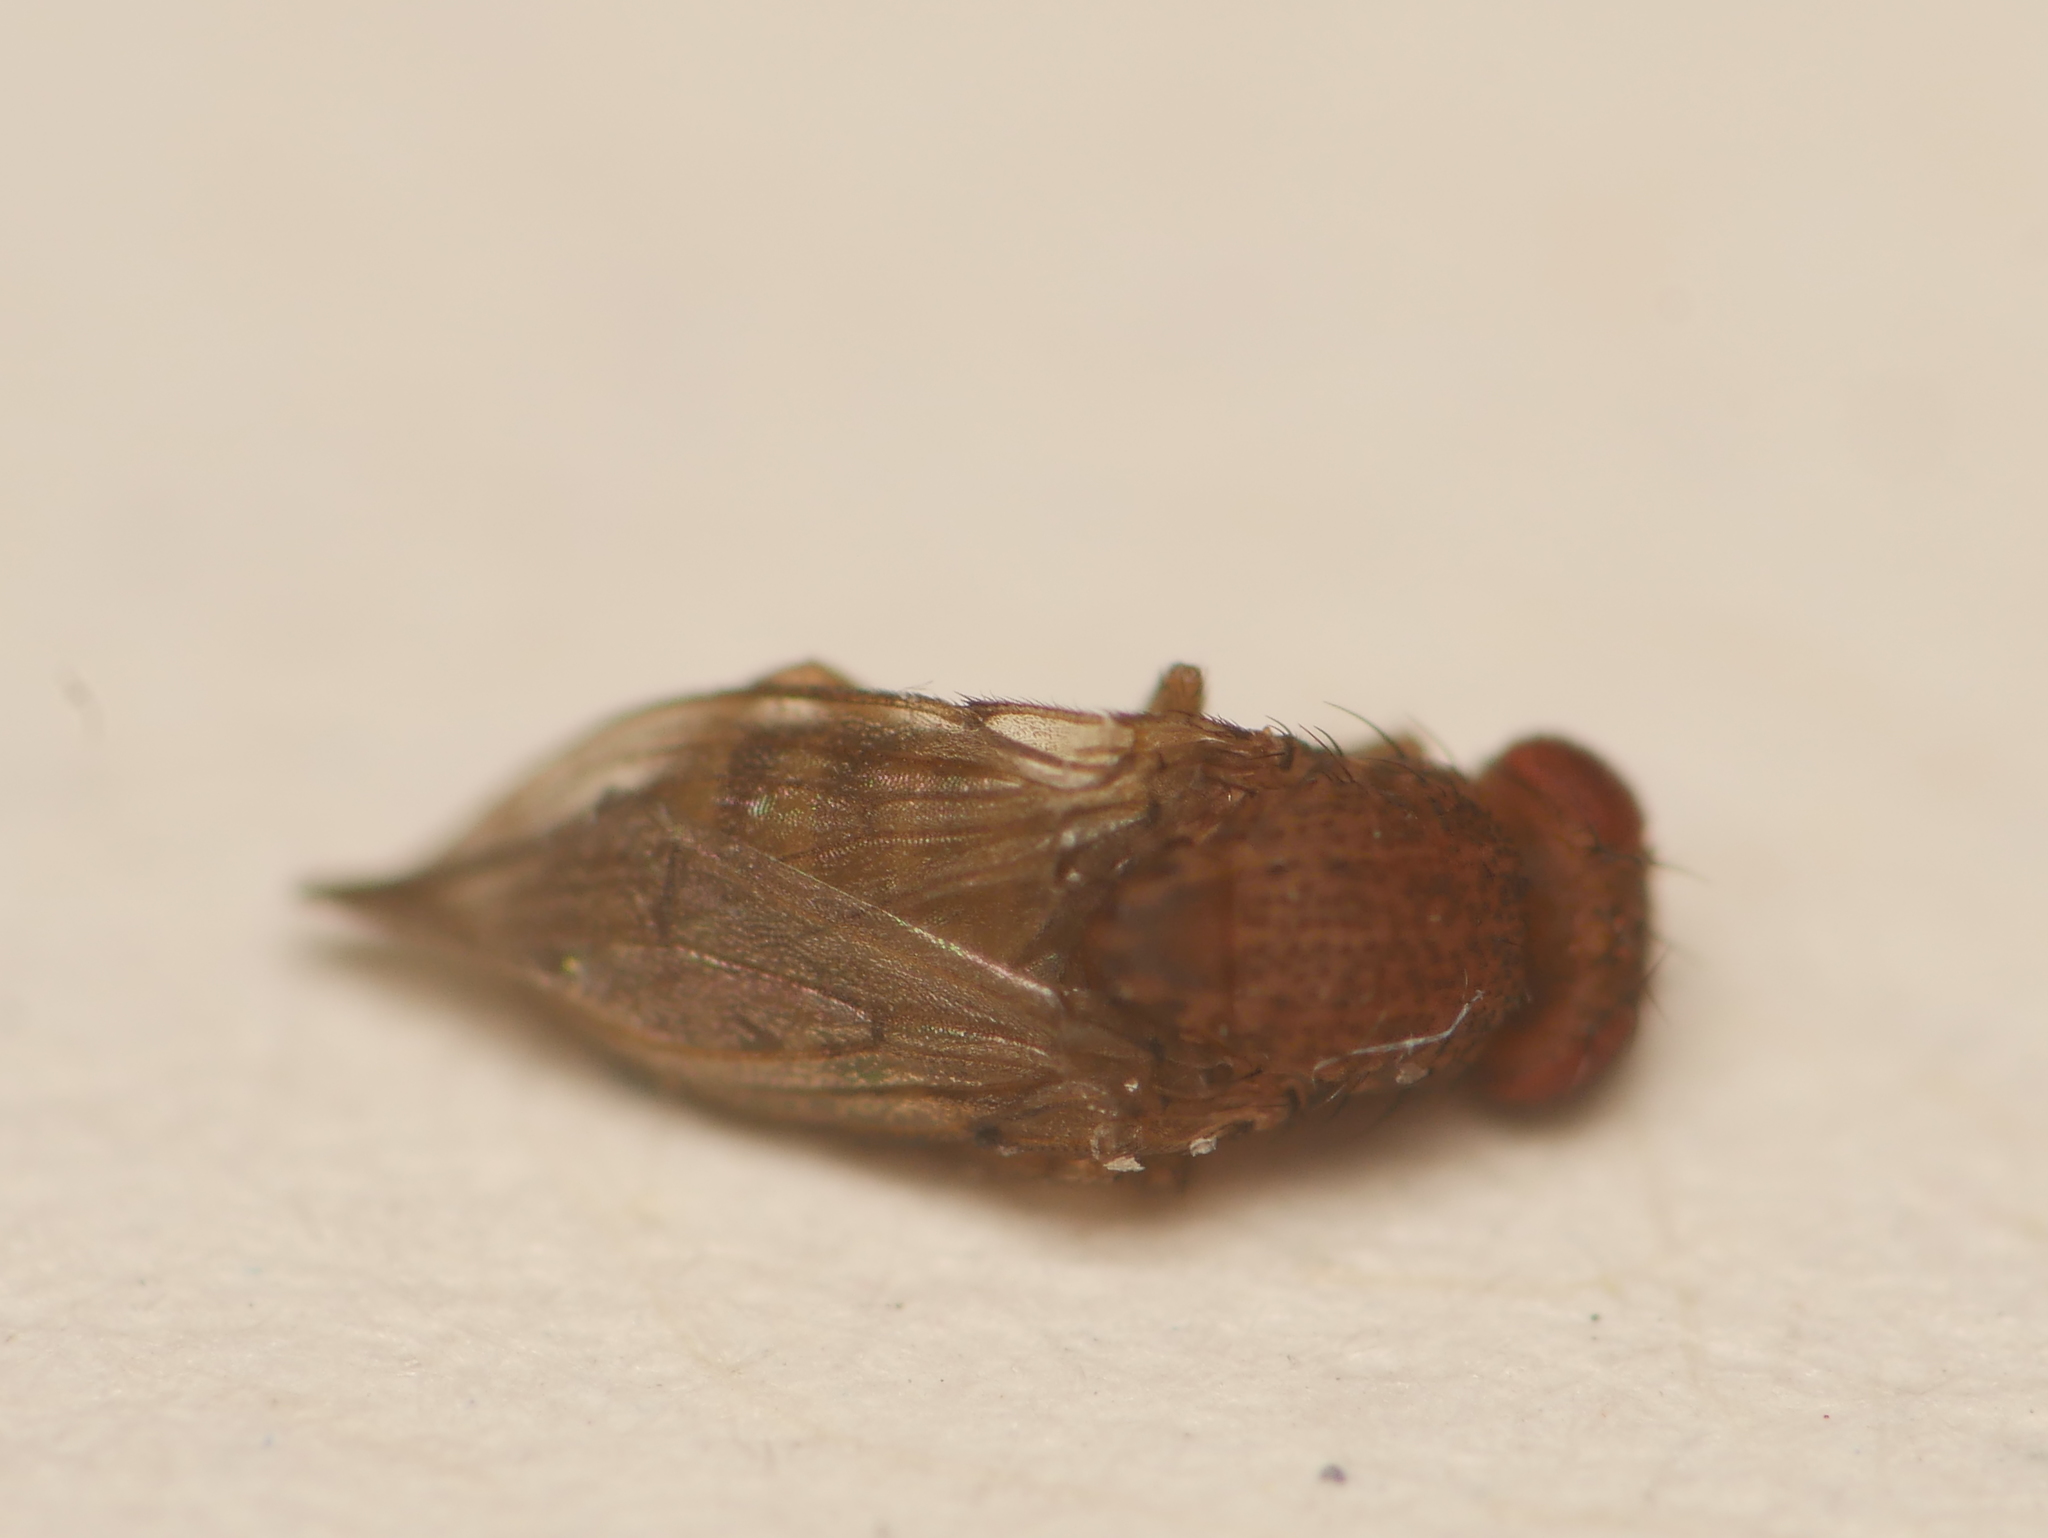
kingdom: Animalia
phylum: Arthropoda
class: Insecta
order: Diptera
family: Drosophilidae
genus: Drosophila
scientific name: Drosophila repleta
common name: Pomace fly
